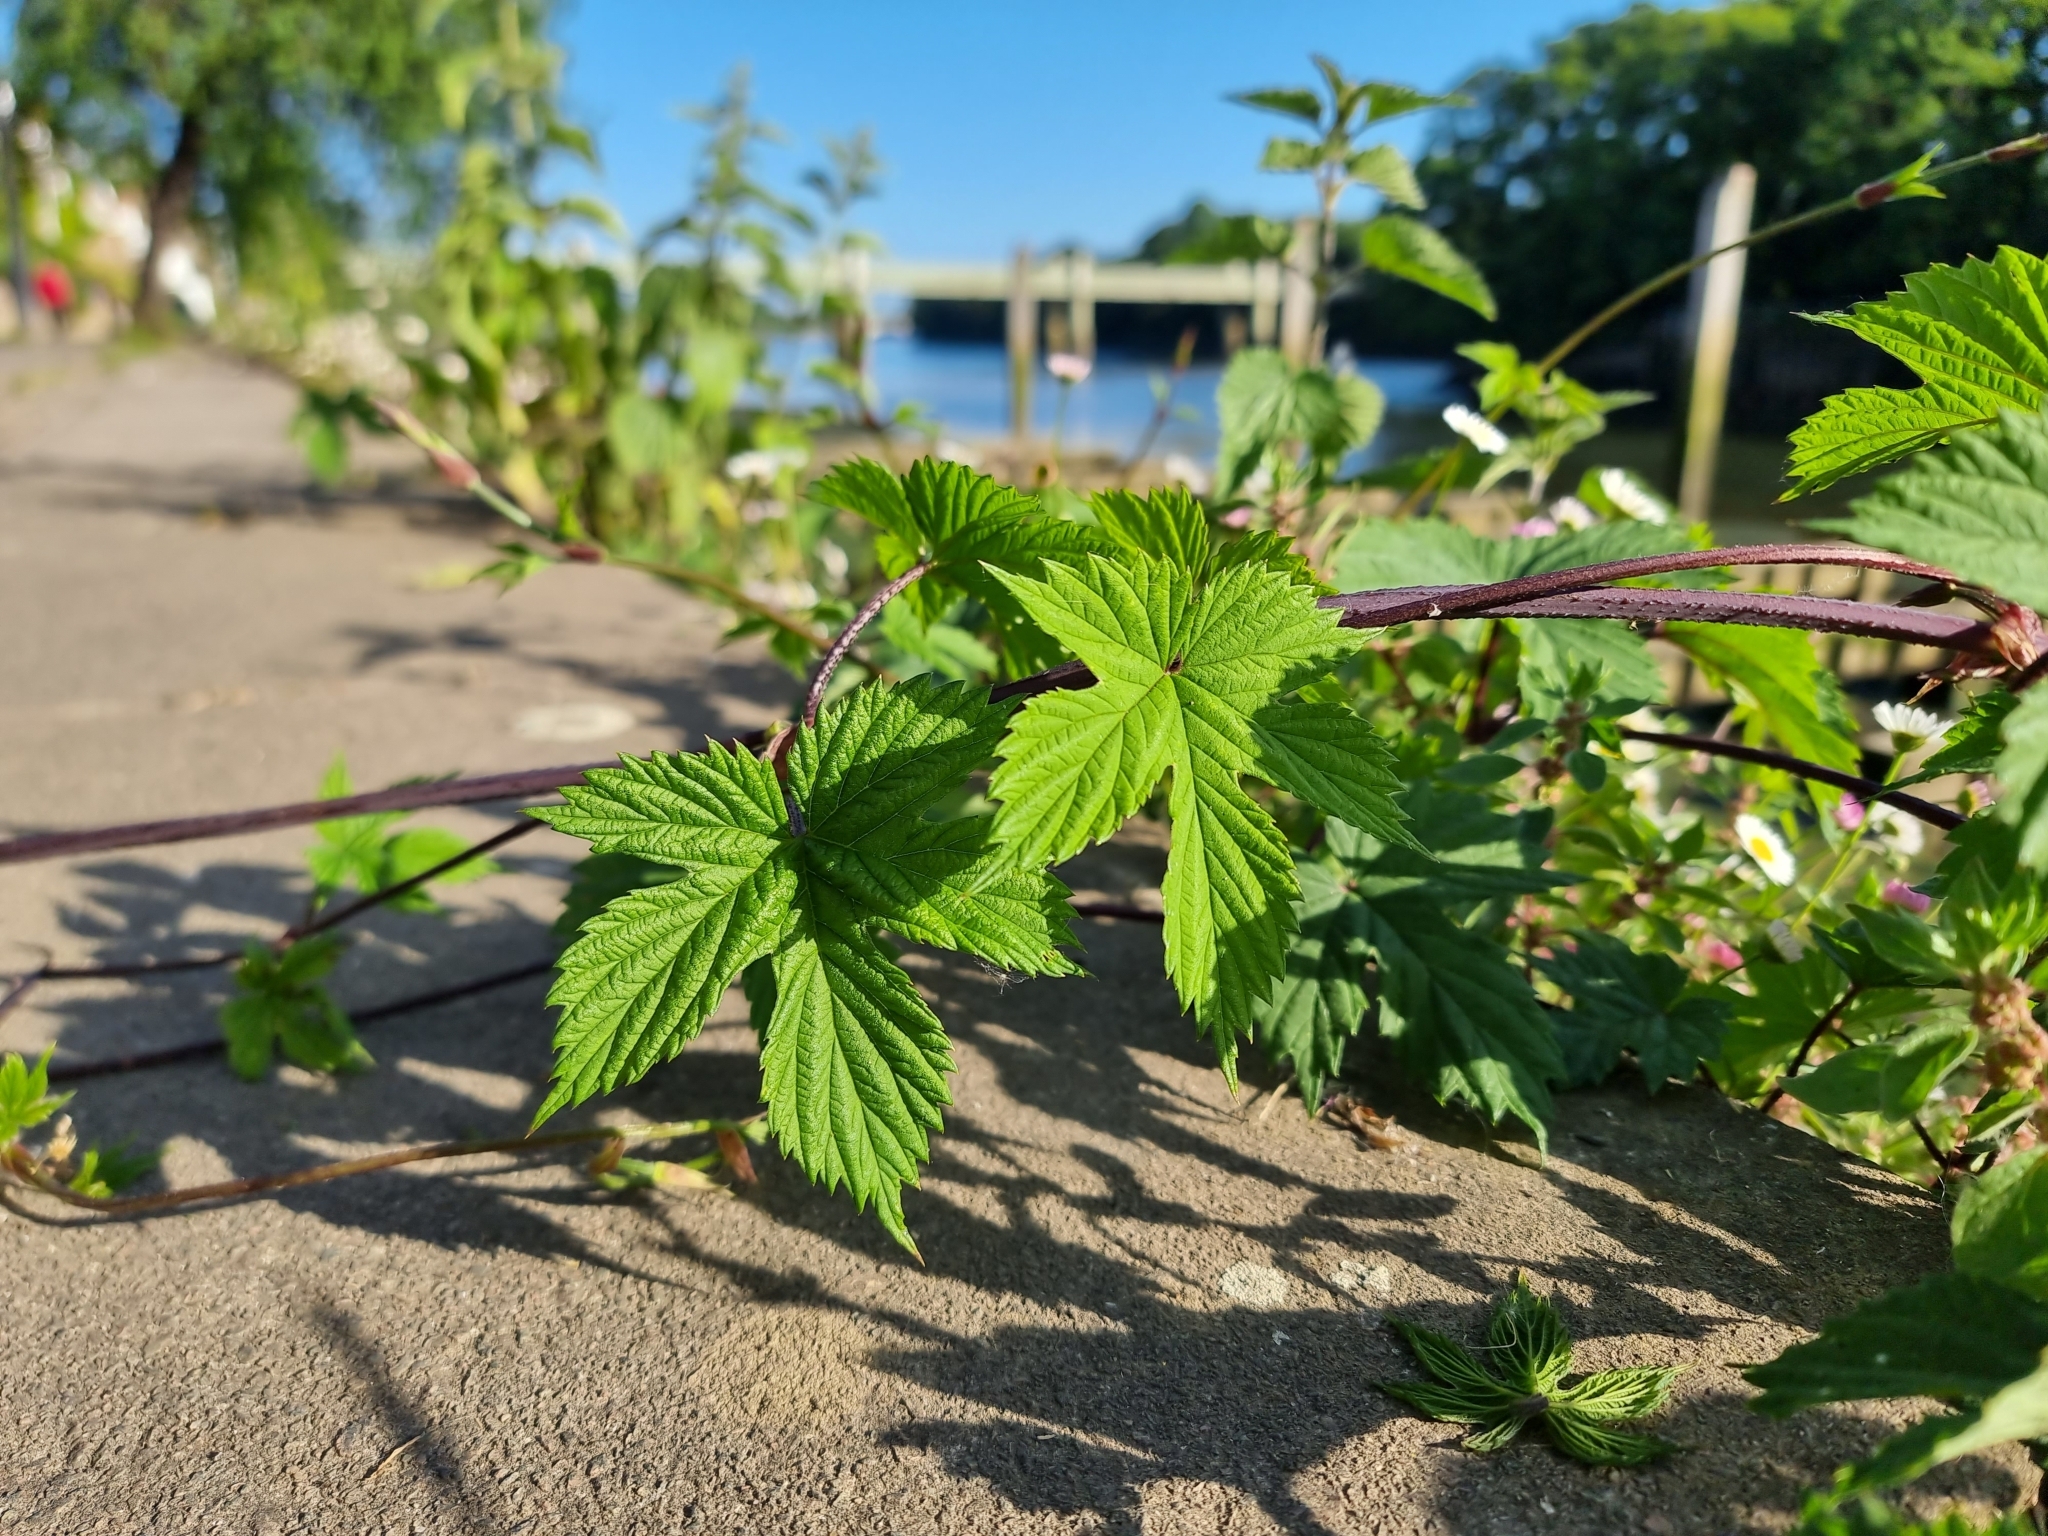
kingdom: Plantae
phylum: Tracheophyta
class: Magnoliopsida
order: Rosales
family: Cannabaceae
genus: Humulus
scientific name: Humulus lupulus
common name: Hop
